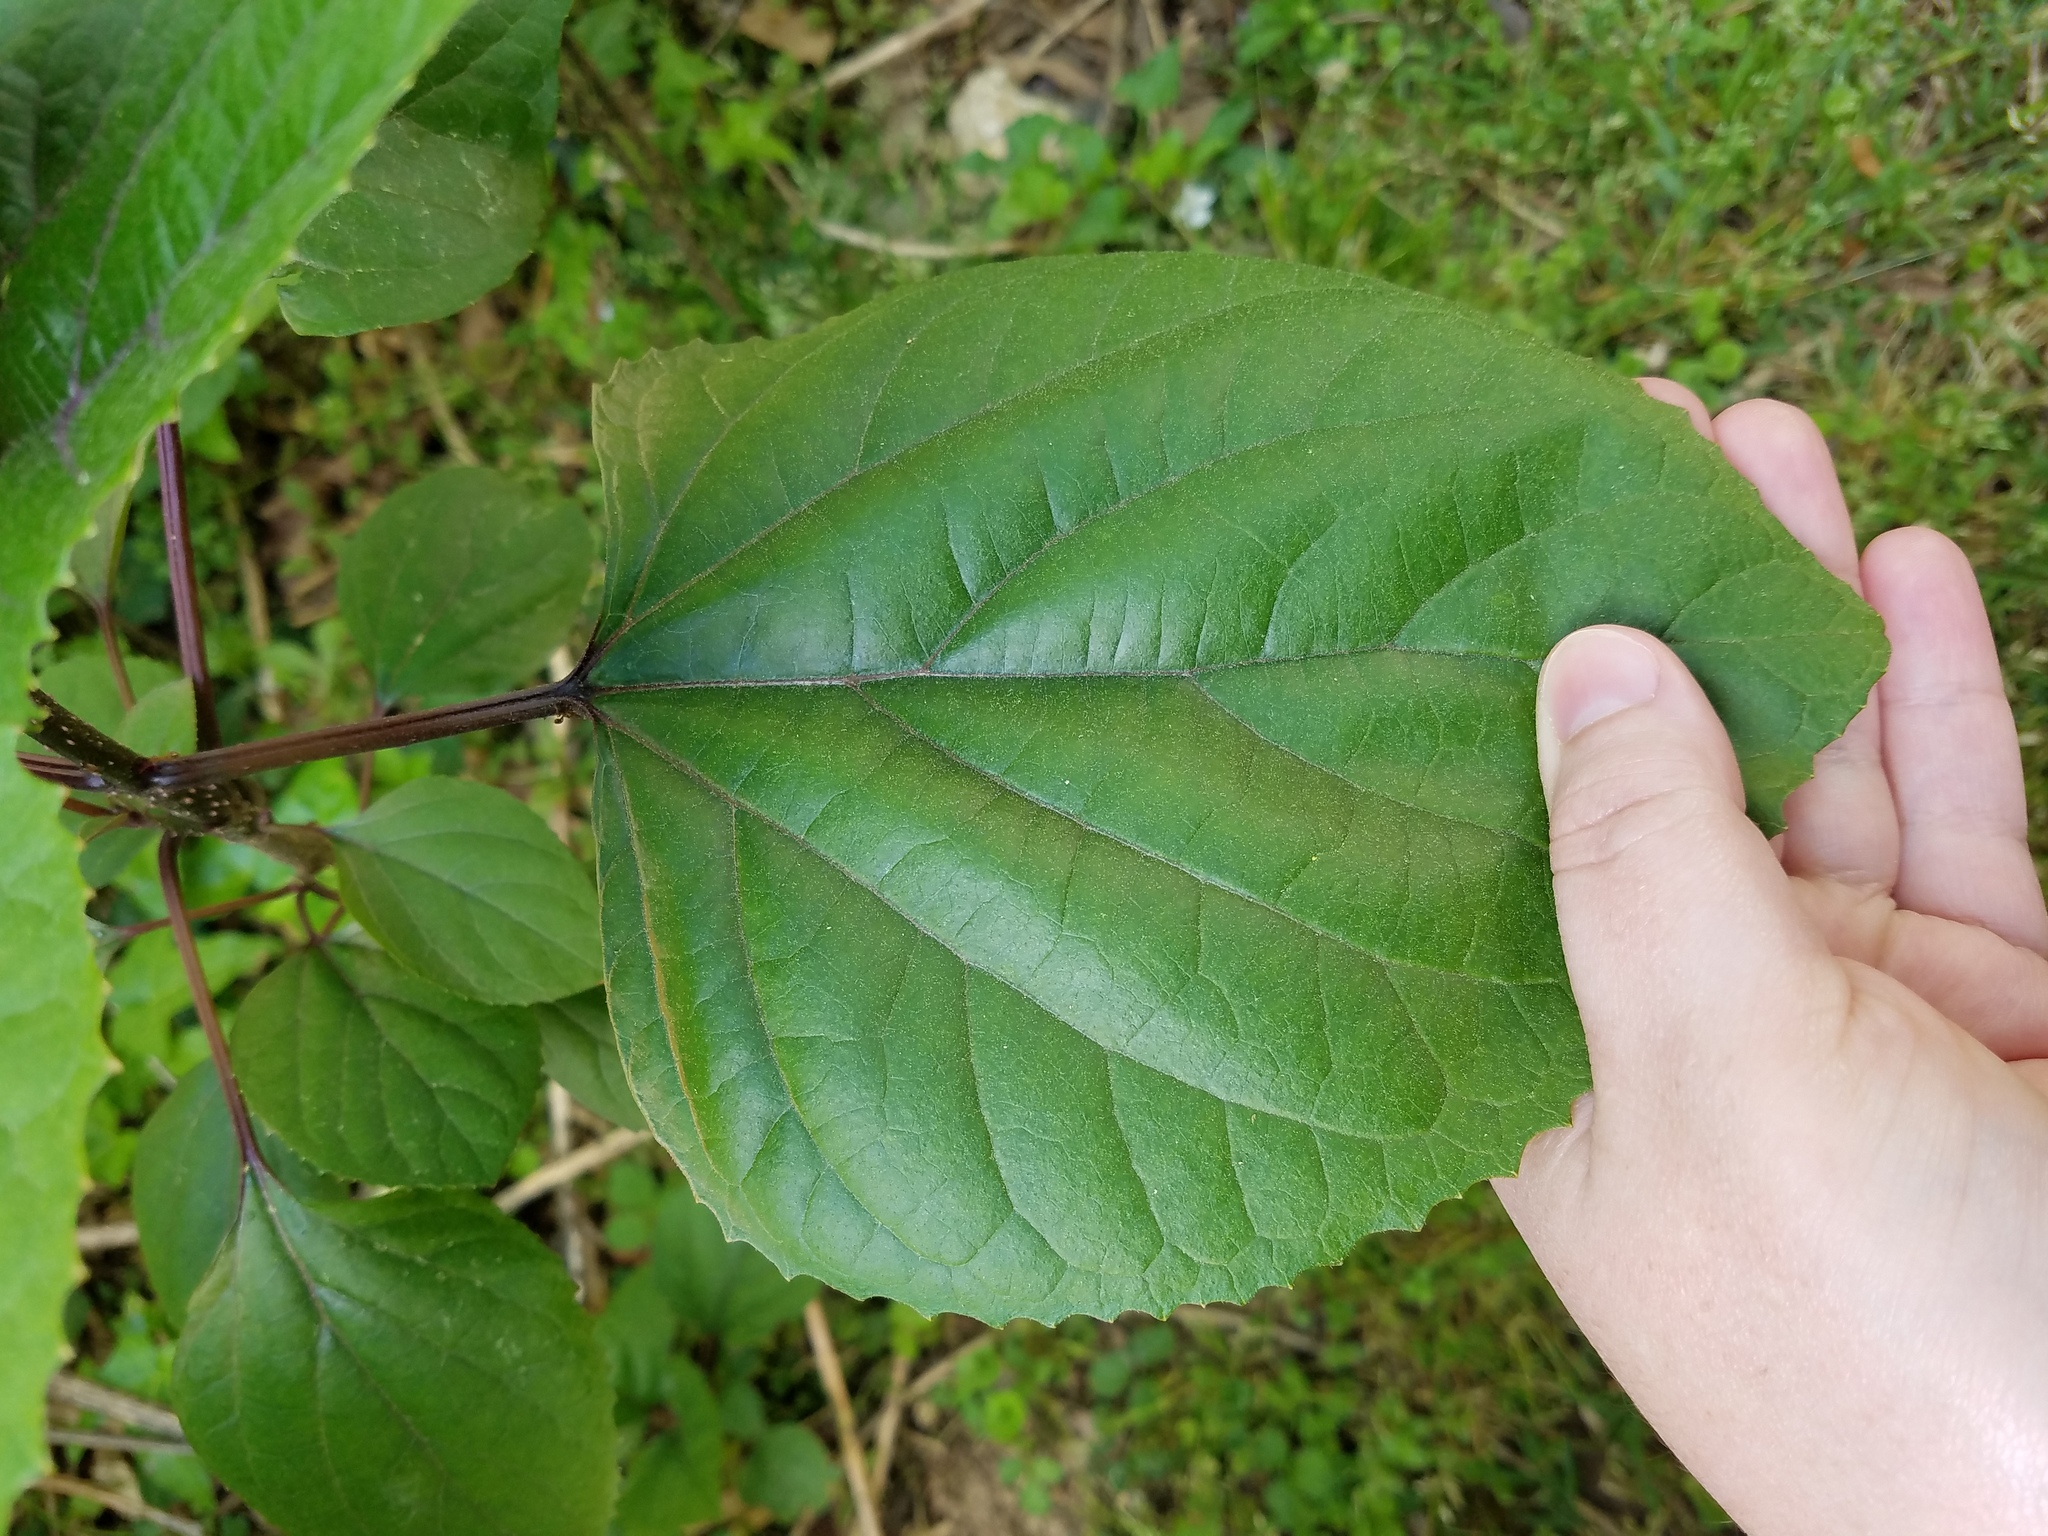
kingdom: Plantae
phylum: Tracheophyta
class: Magnoliopsida
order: Lamiales
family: Lamiaceae
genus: Clerodendrum
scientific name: Clerodendrum bungei
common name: Rose glorybower
